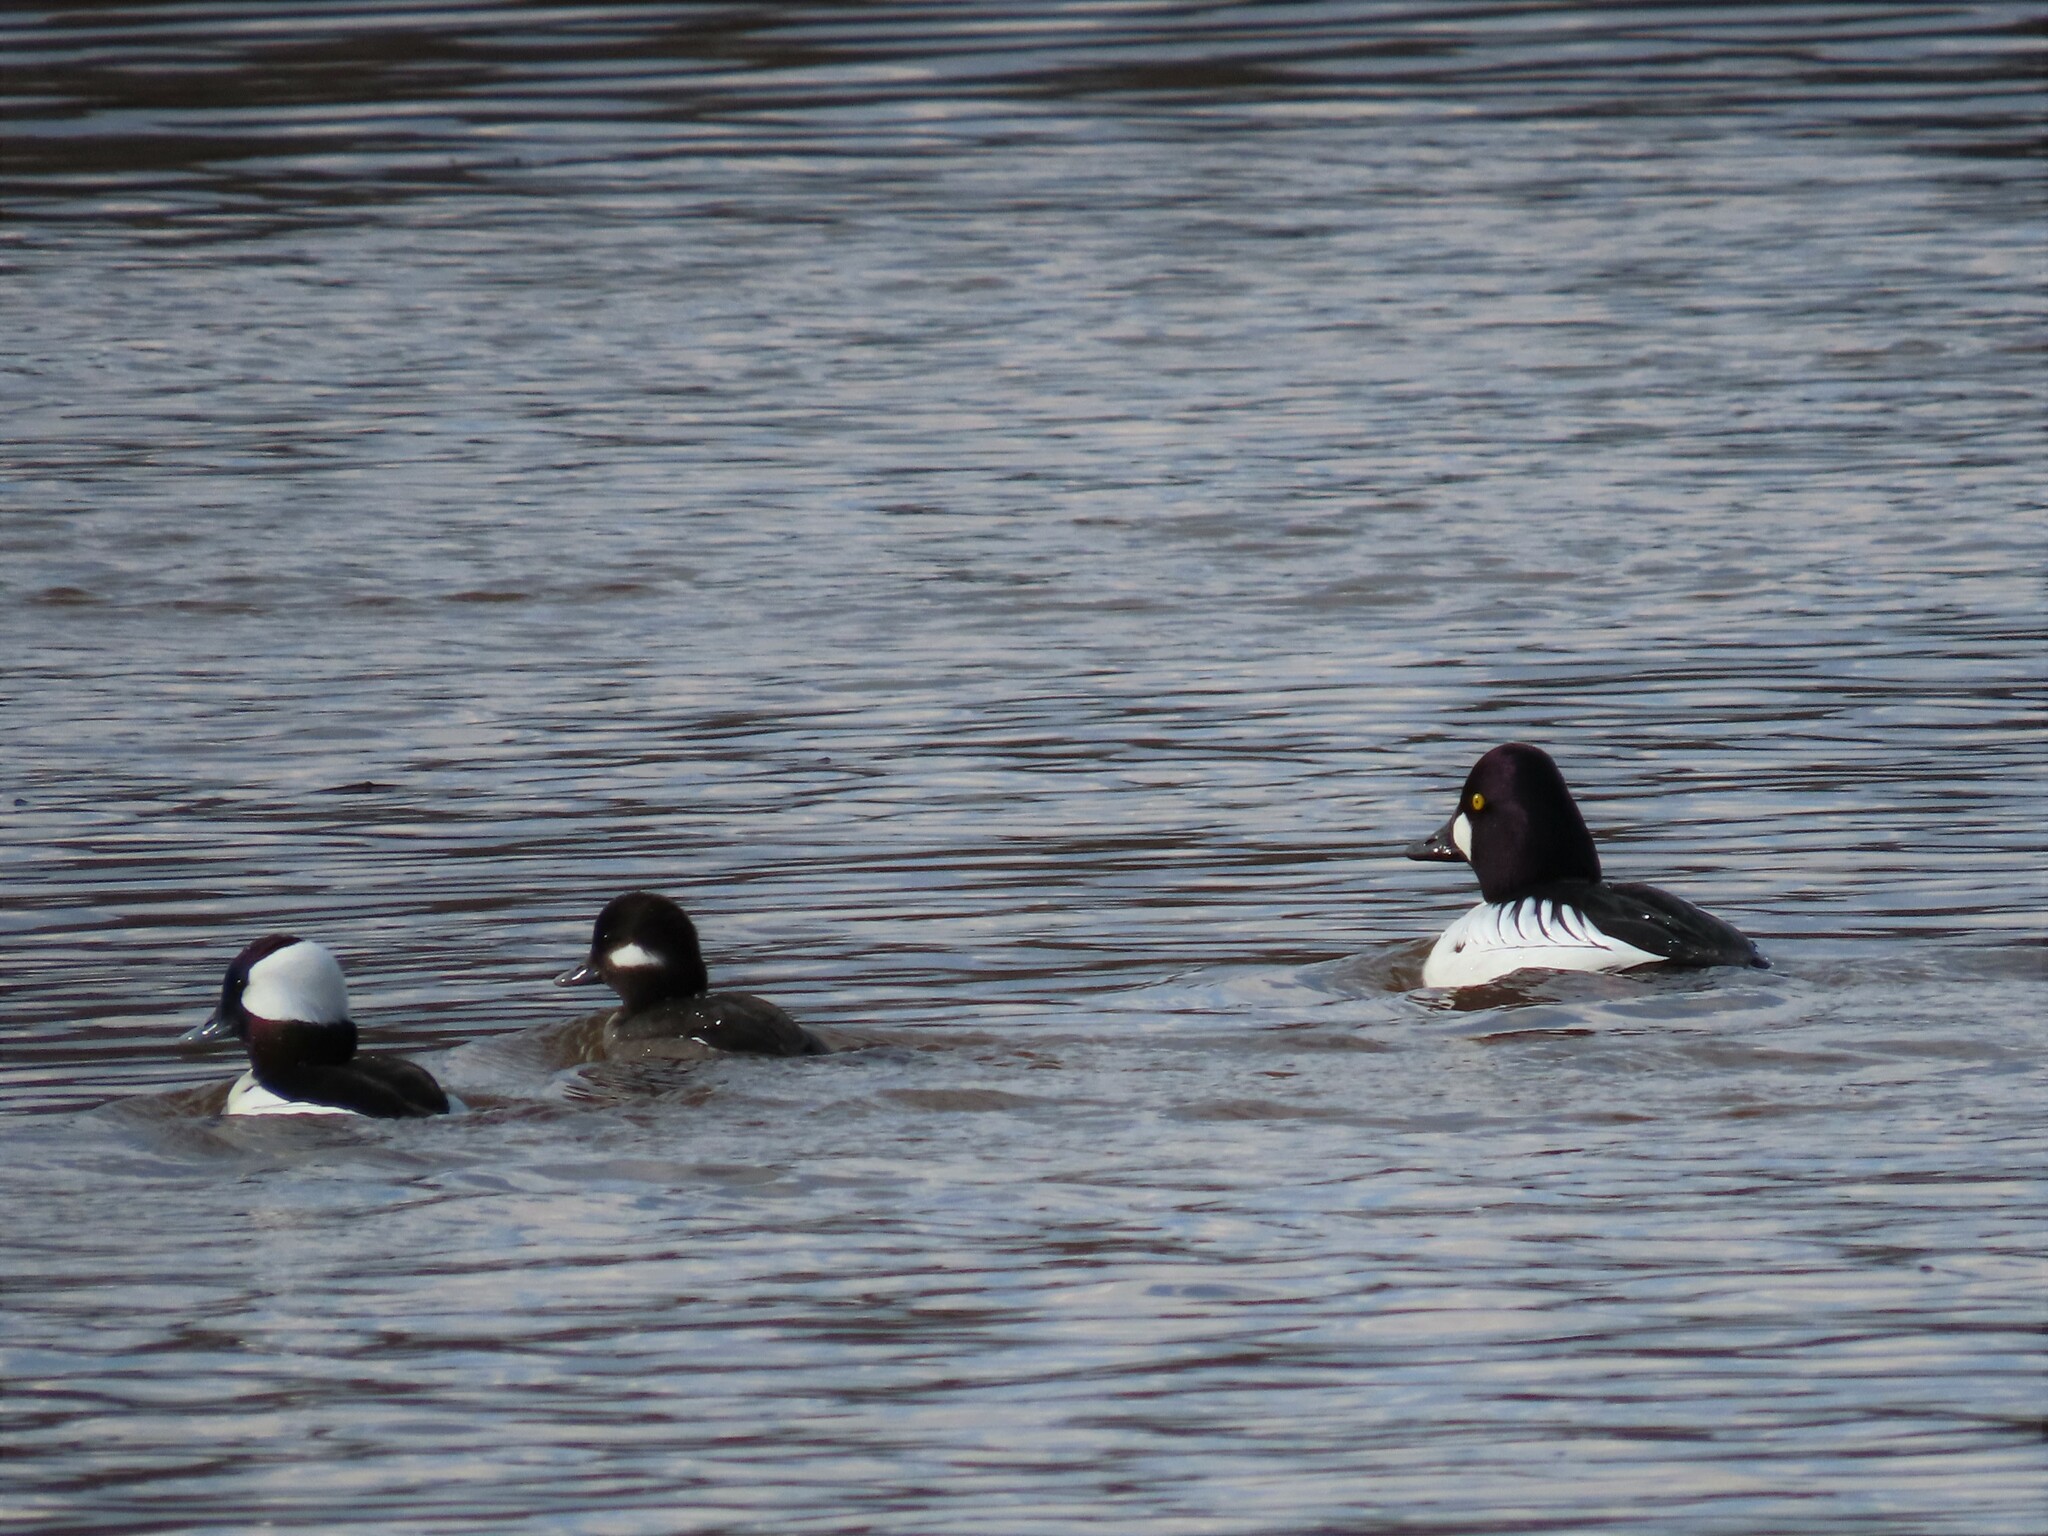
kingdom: Animalia
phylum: Chordata
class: Aves
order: Anseriformes
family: Anatidae
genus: Bucephala
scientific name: Bucephala albeola
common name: Bufflehead
